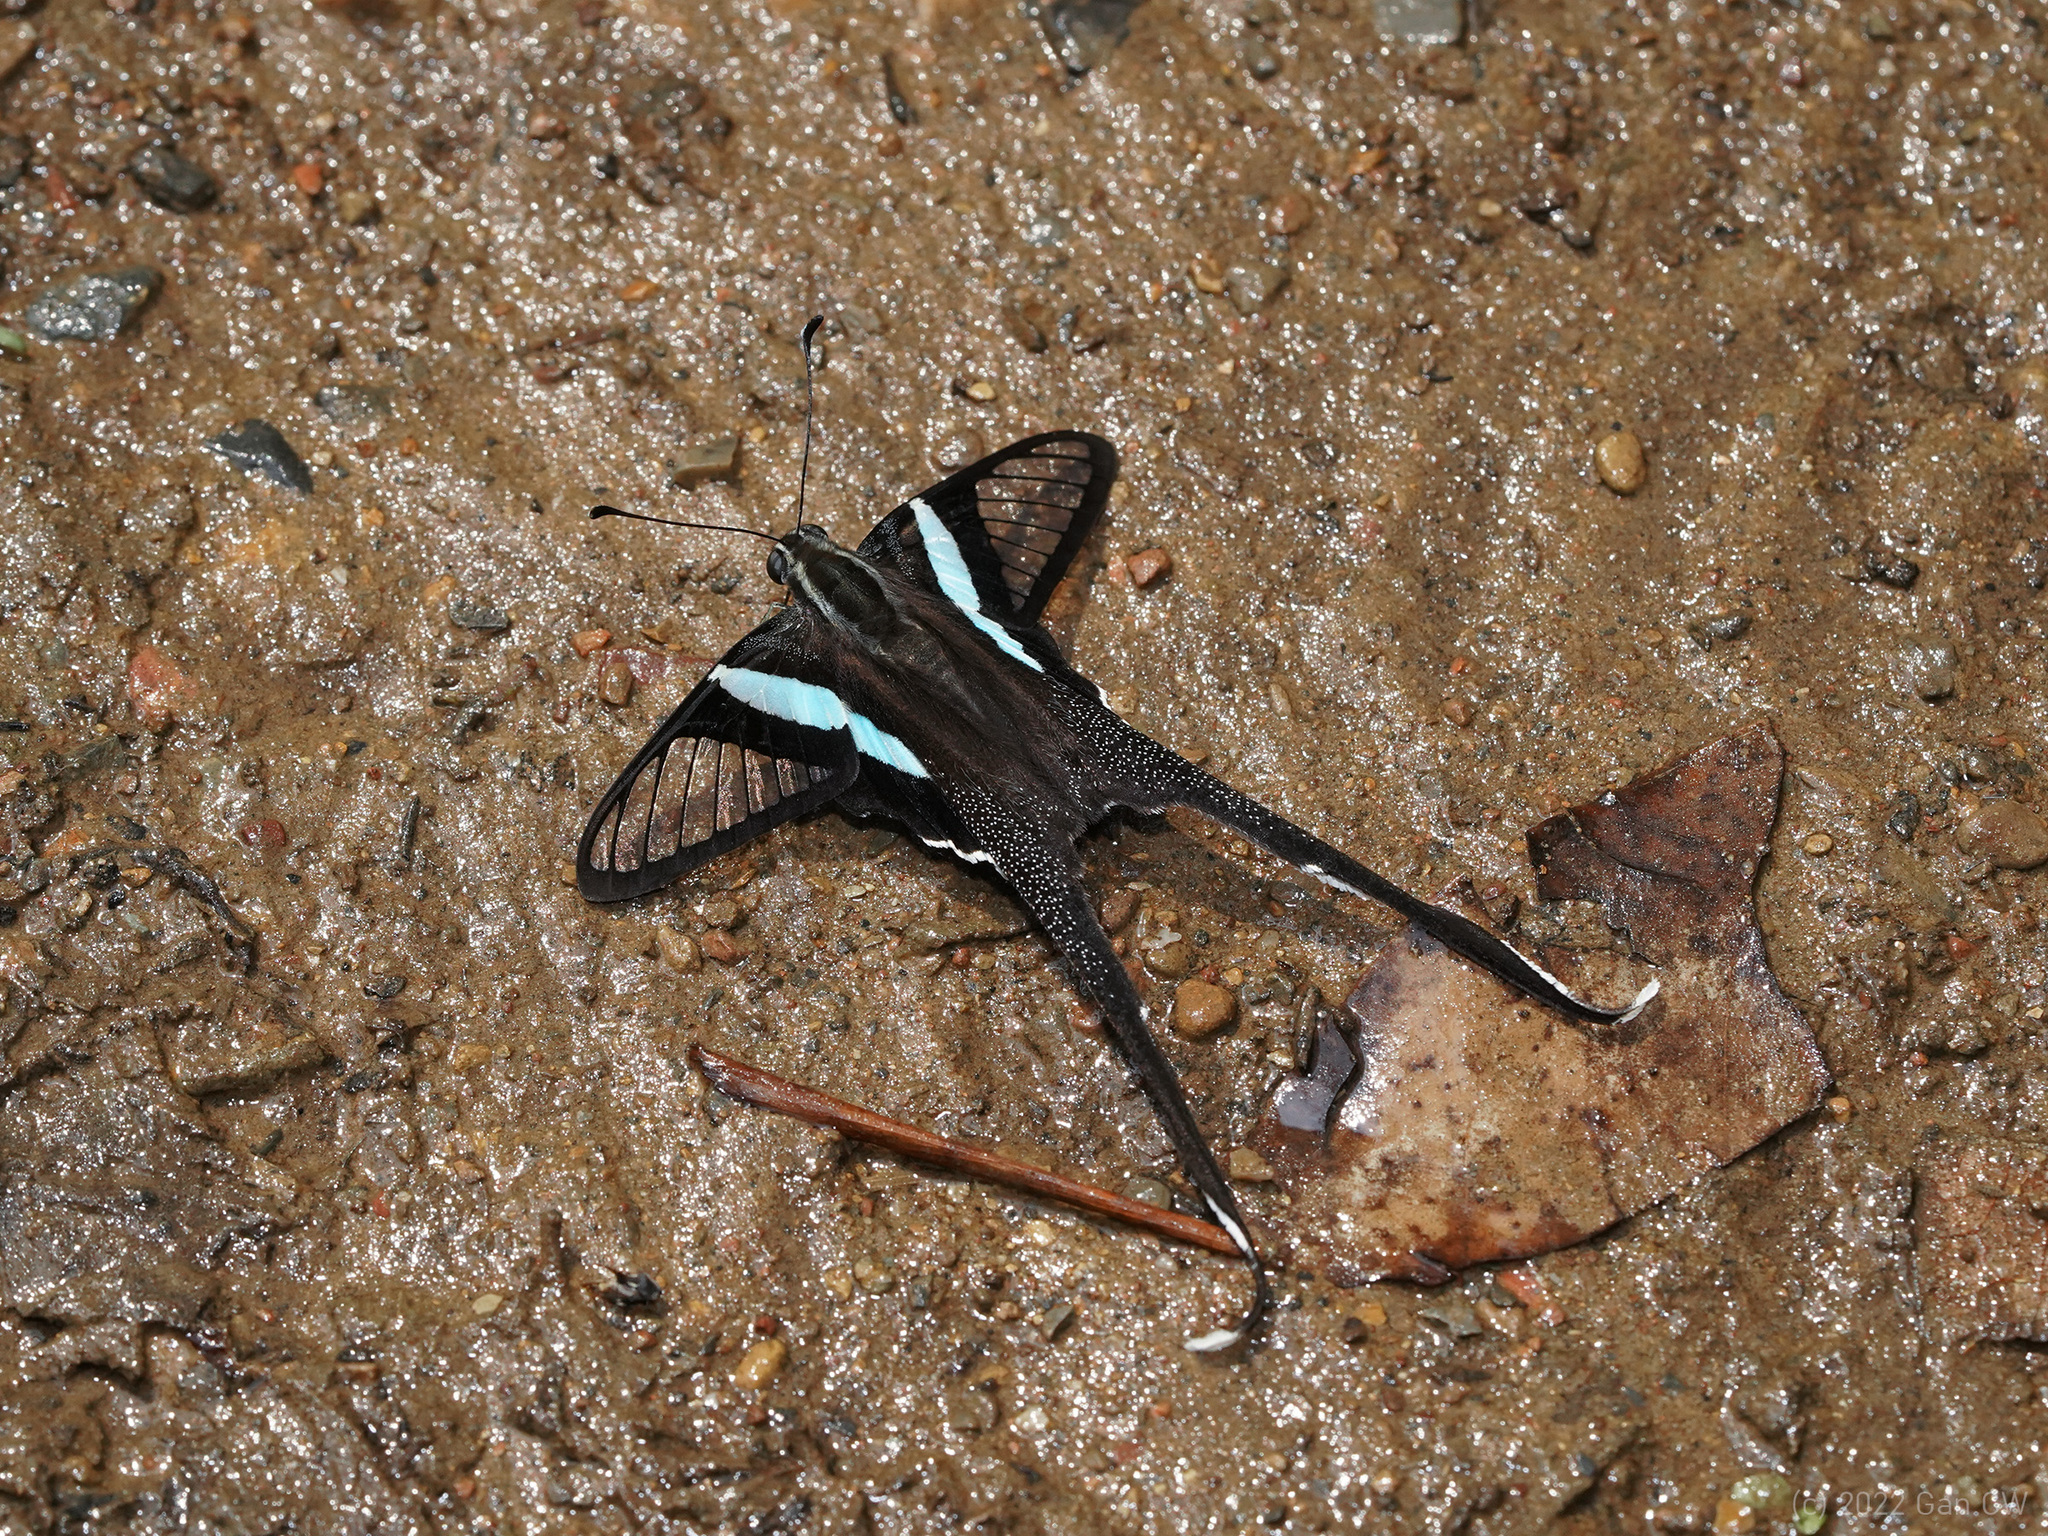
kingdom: Animalia
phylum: Arthropoda
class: Insecta
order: Lepidoptera
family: Papilionidae
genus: Lamproptera
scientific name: Lamproptera meges
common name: Green dragontail
